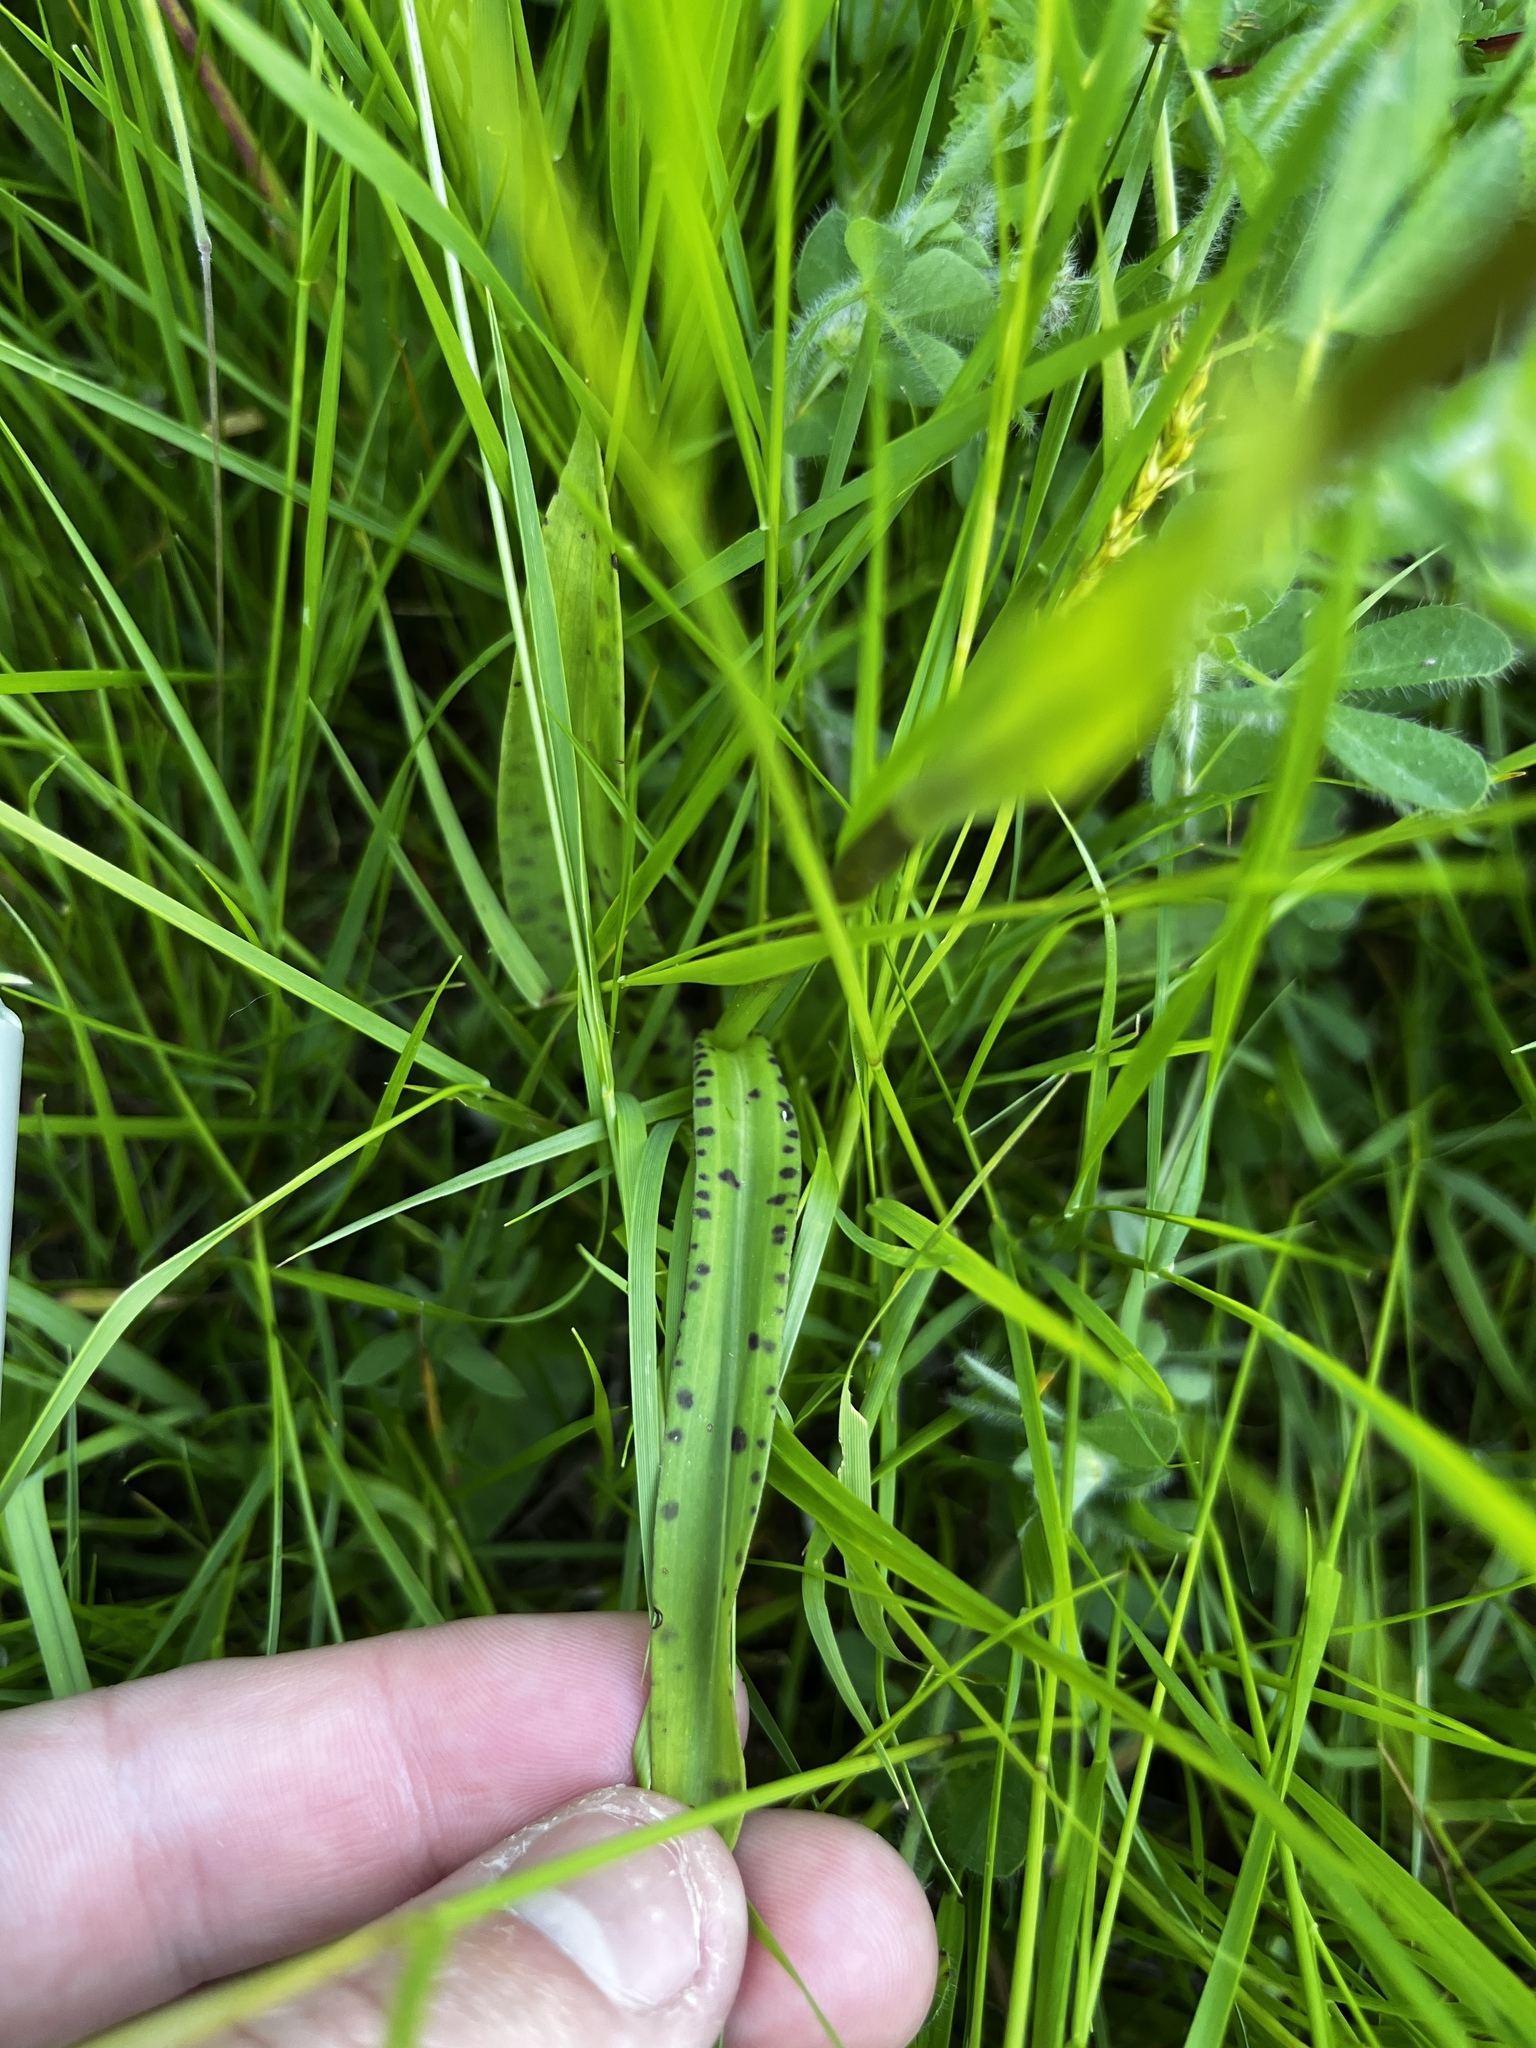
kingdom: Plantae
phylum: Tracheophyta
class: Liliopsida
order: Asparagales
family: Orchidaceae
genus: Dactylorhiza
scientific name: Dactylorhiza maculata
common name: Heath spotted-orchid
